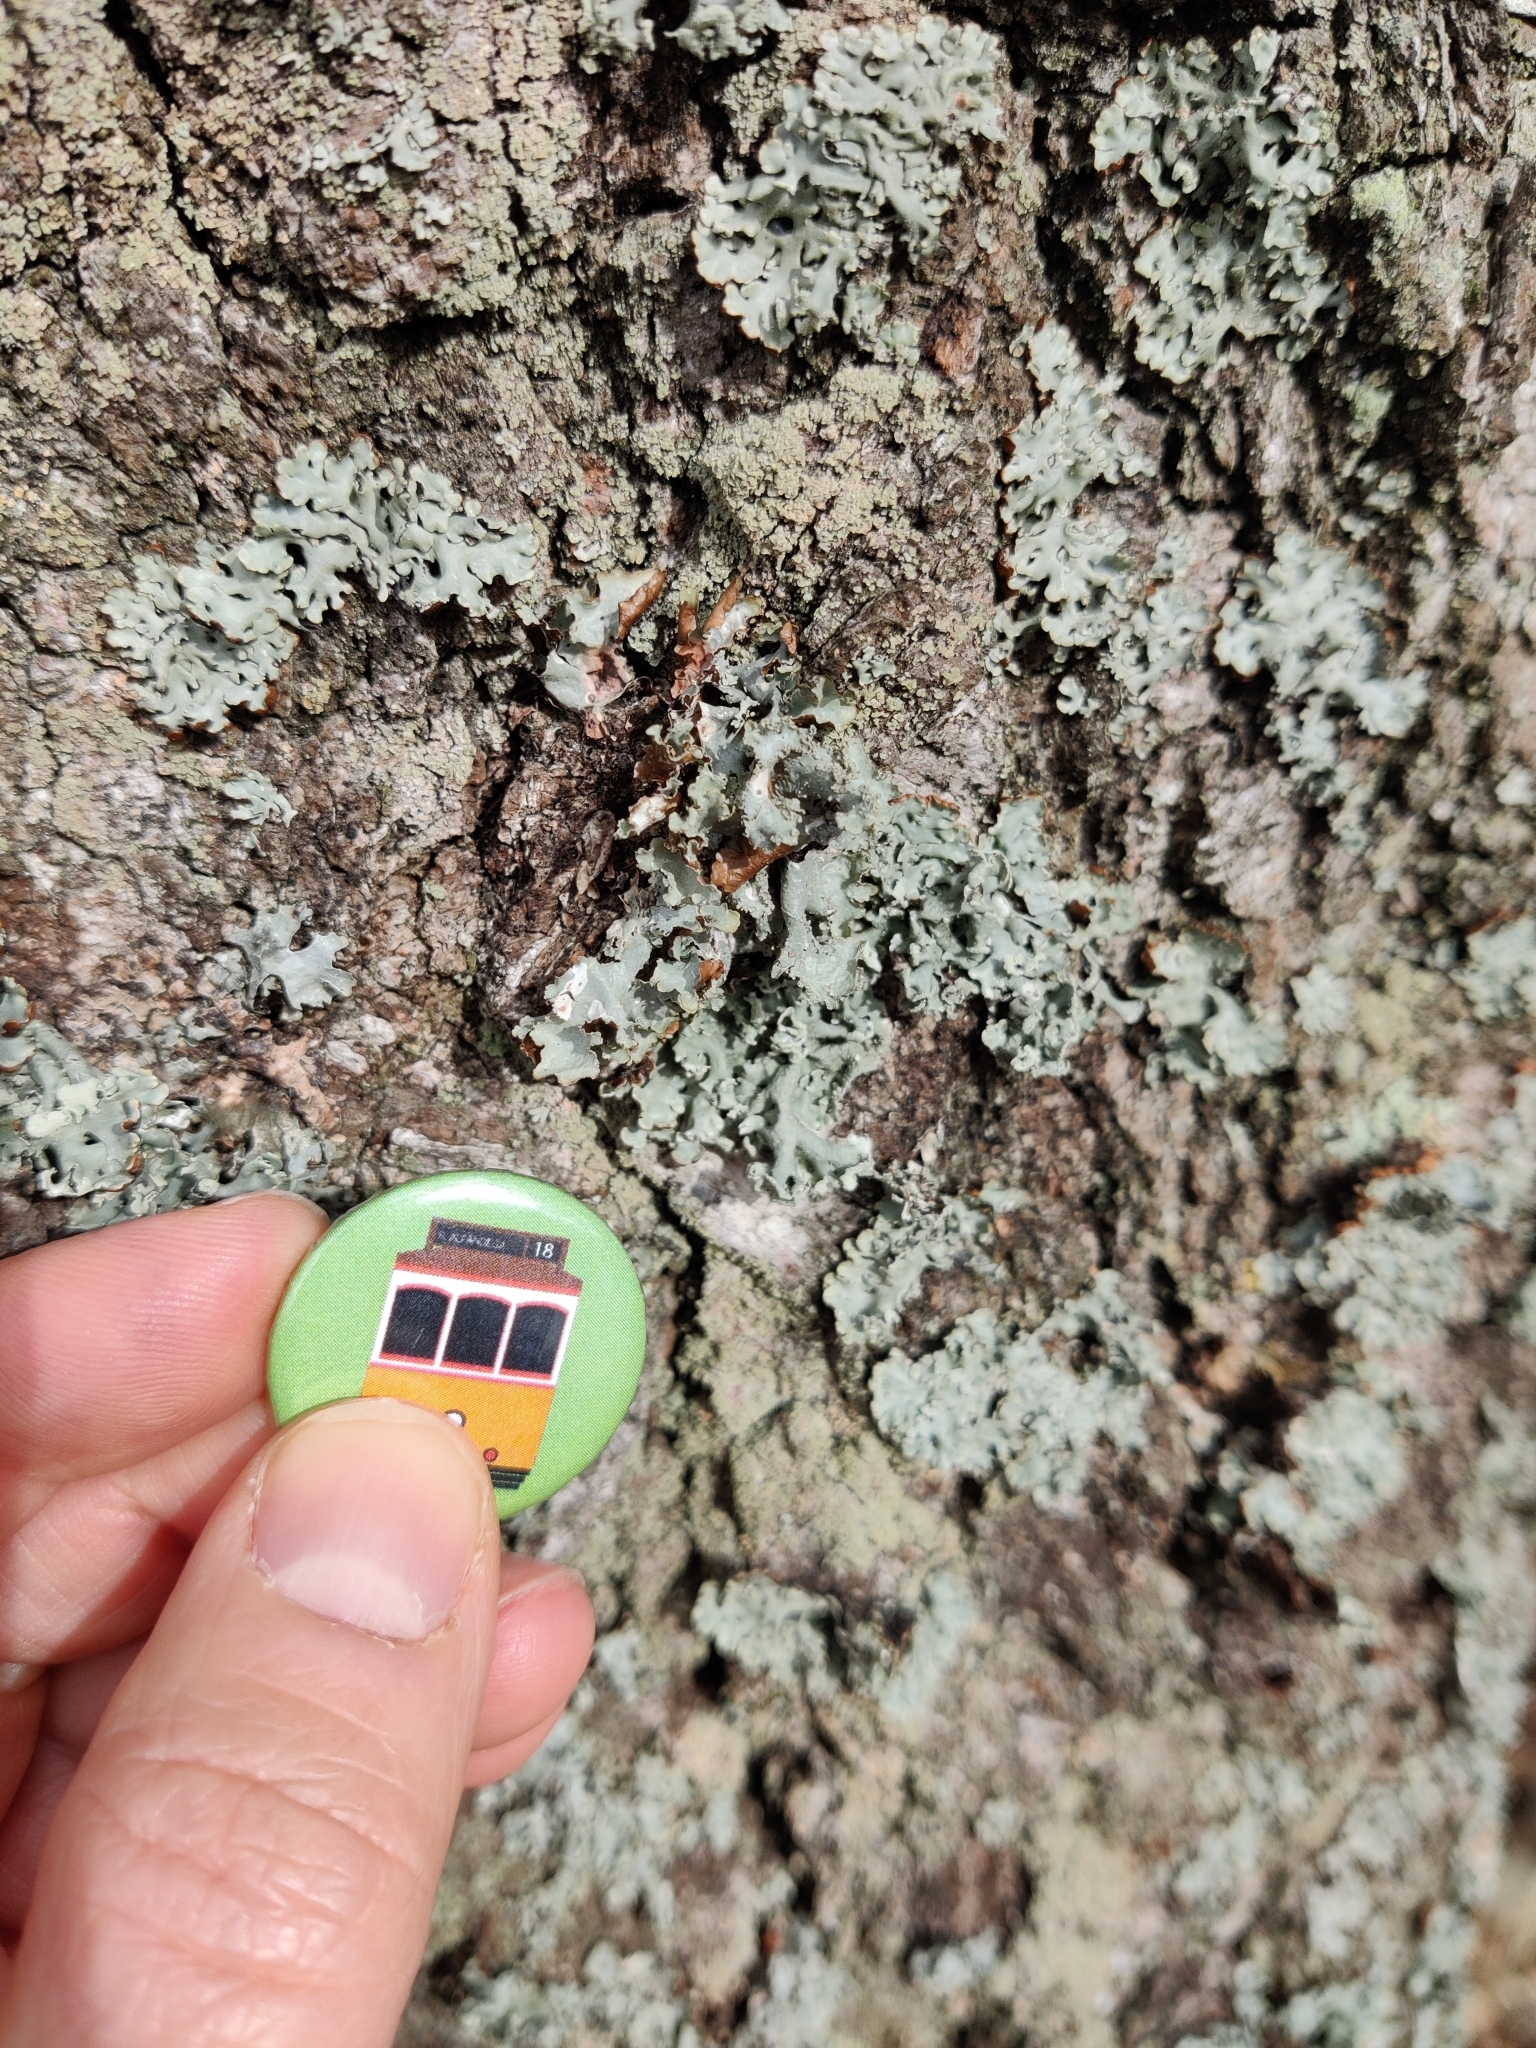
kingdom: Fungi
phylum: Ascomycota
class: Lecanoromycetes
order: Lecanorales
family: Parmeliaceae
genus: Hypogymnia
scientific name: Hypogymnia physodes
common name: Dark crottle
